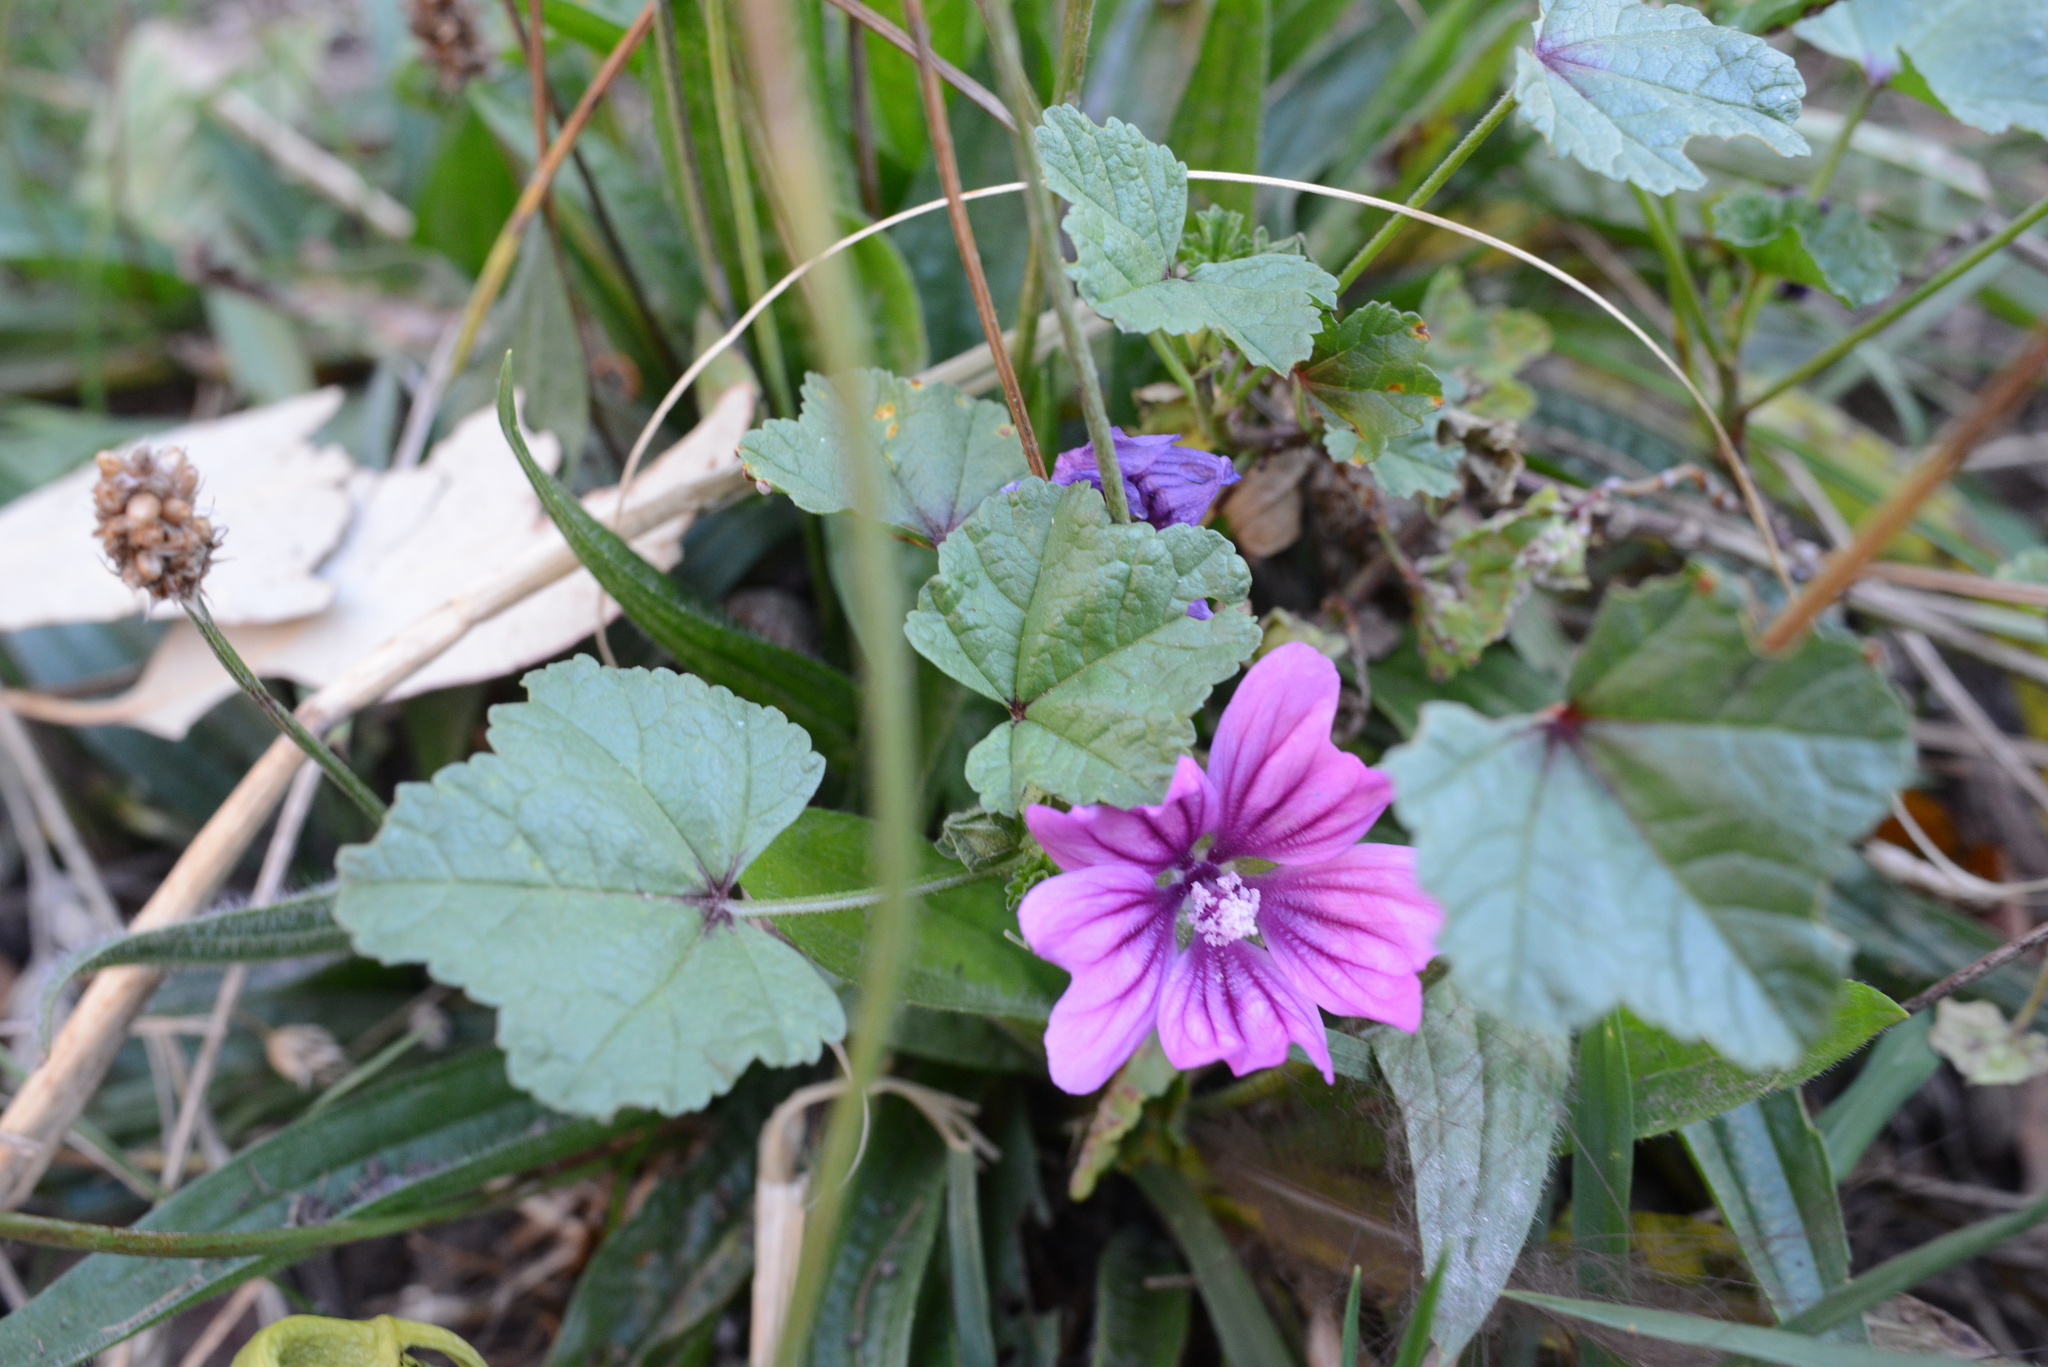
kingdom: Plantae
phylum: Tracheophyta
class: Magnoliopsida
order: Malvales
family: Malvaceae
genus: Malva
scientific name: Malva sylvestris
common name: Common mallow
